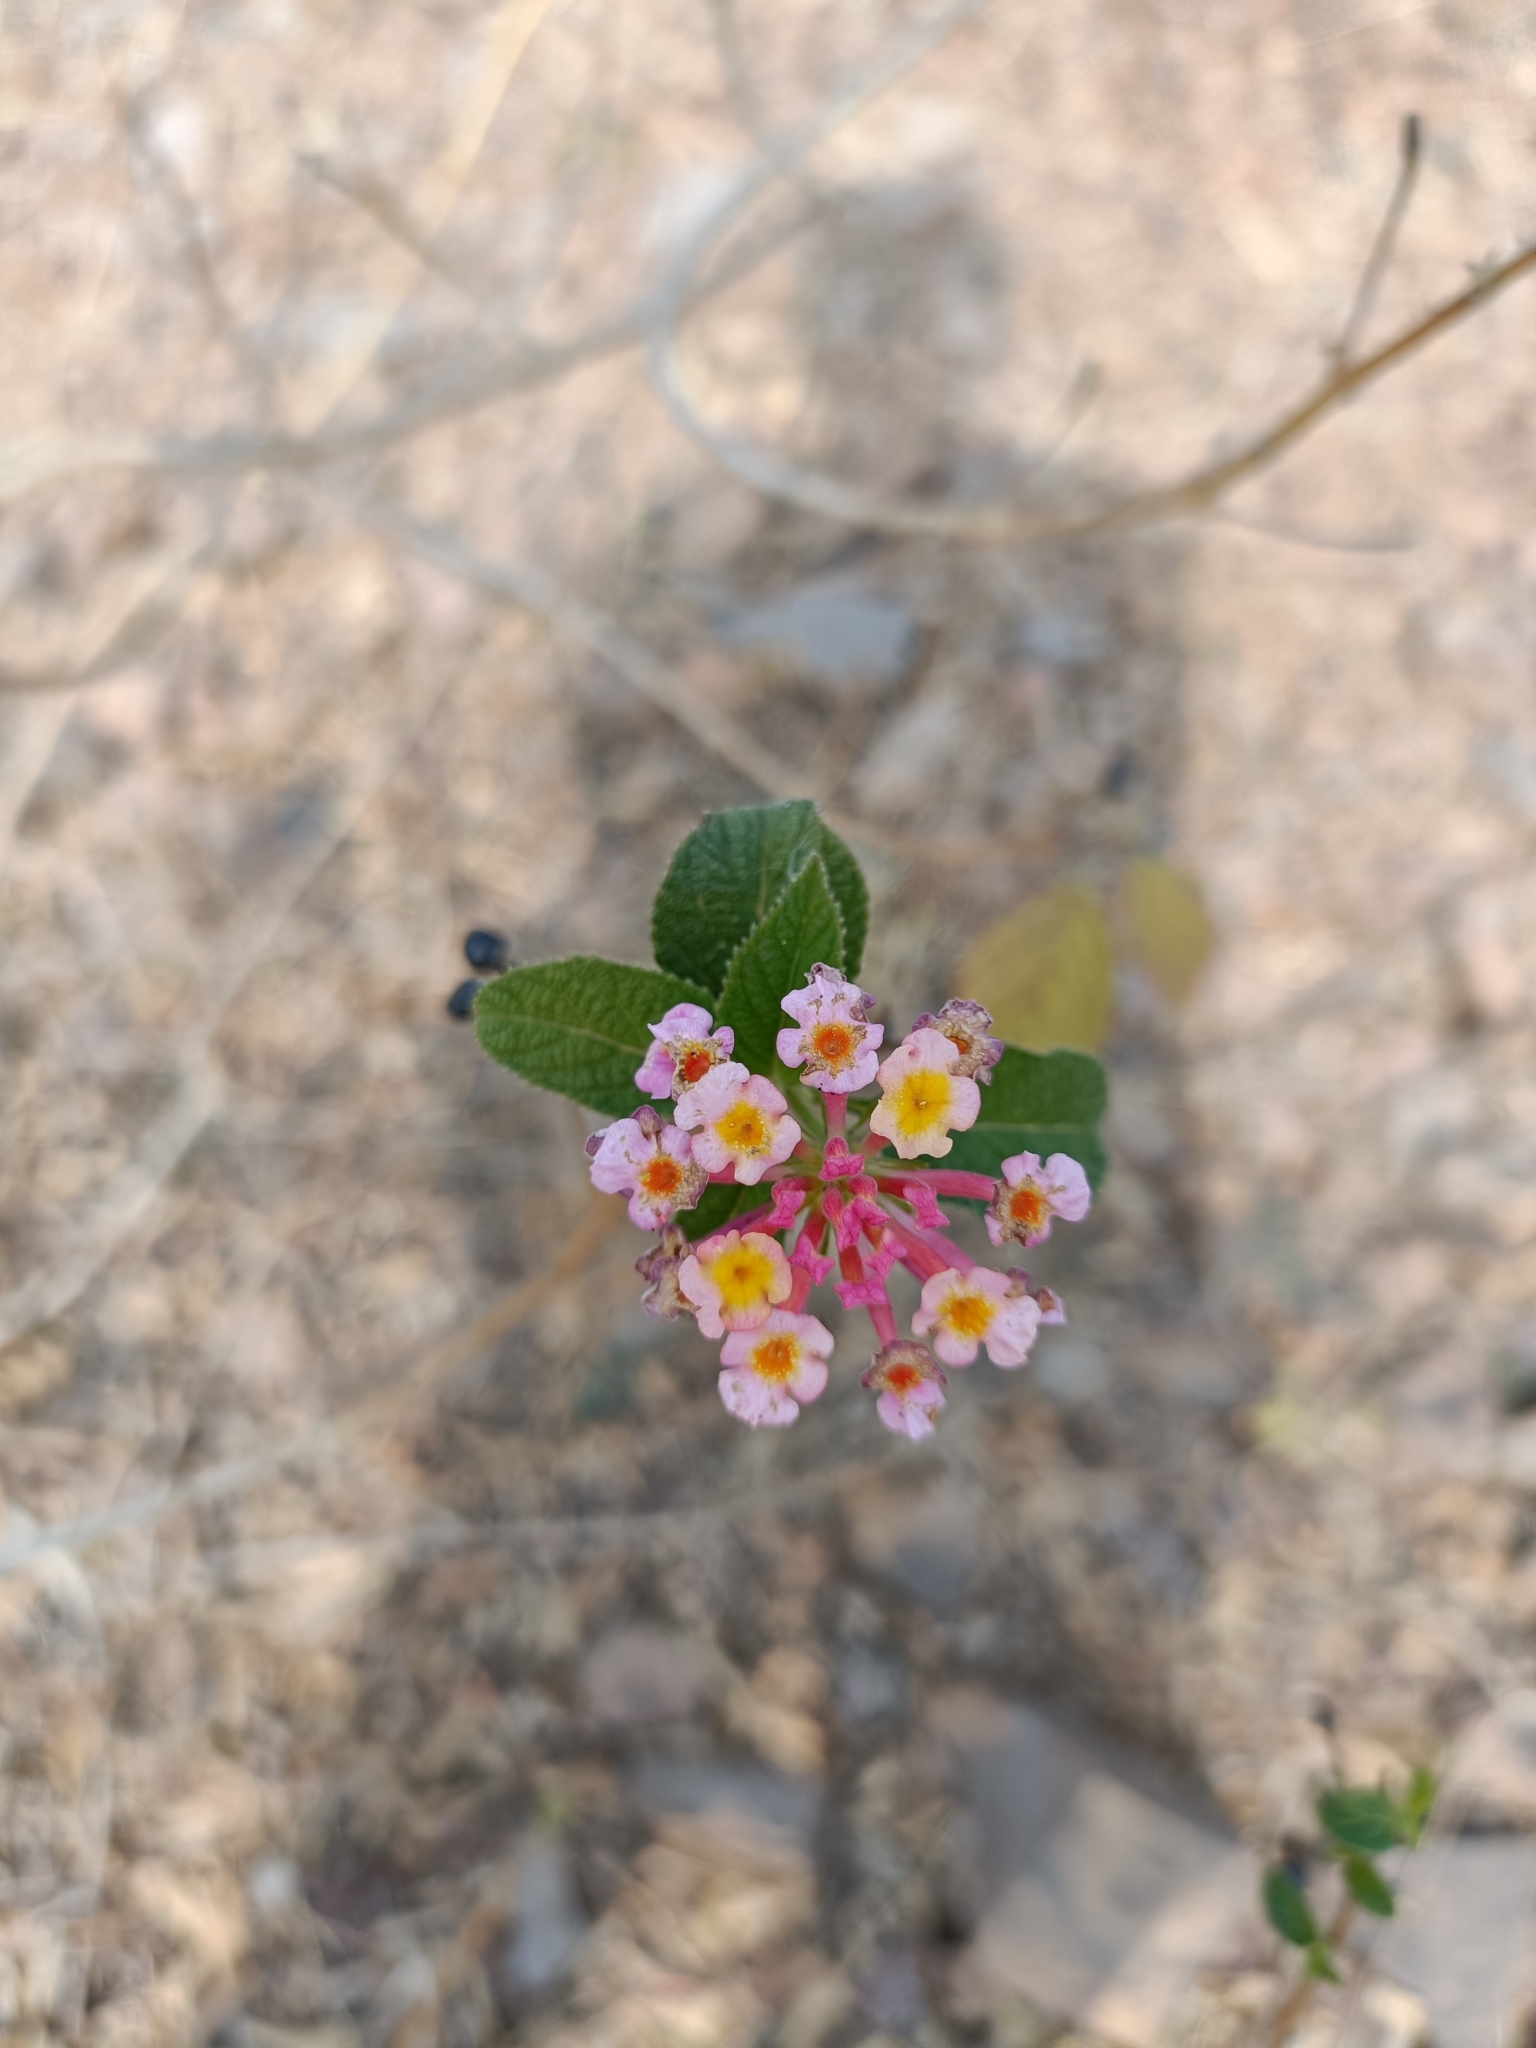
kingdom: Plantae
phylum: Tracheophyta
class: Magnoliopsida
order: Lamiales
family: Verbenaceae
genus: Lantana
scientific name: Lantana camara
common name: Lantana
